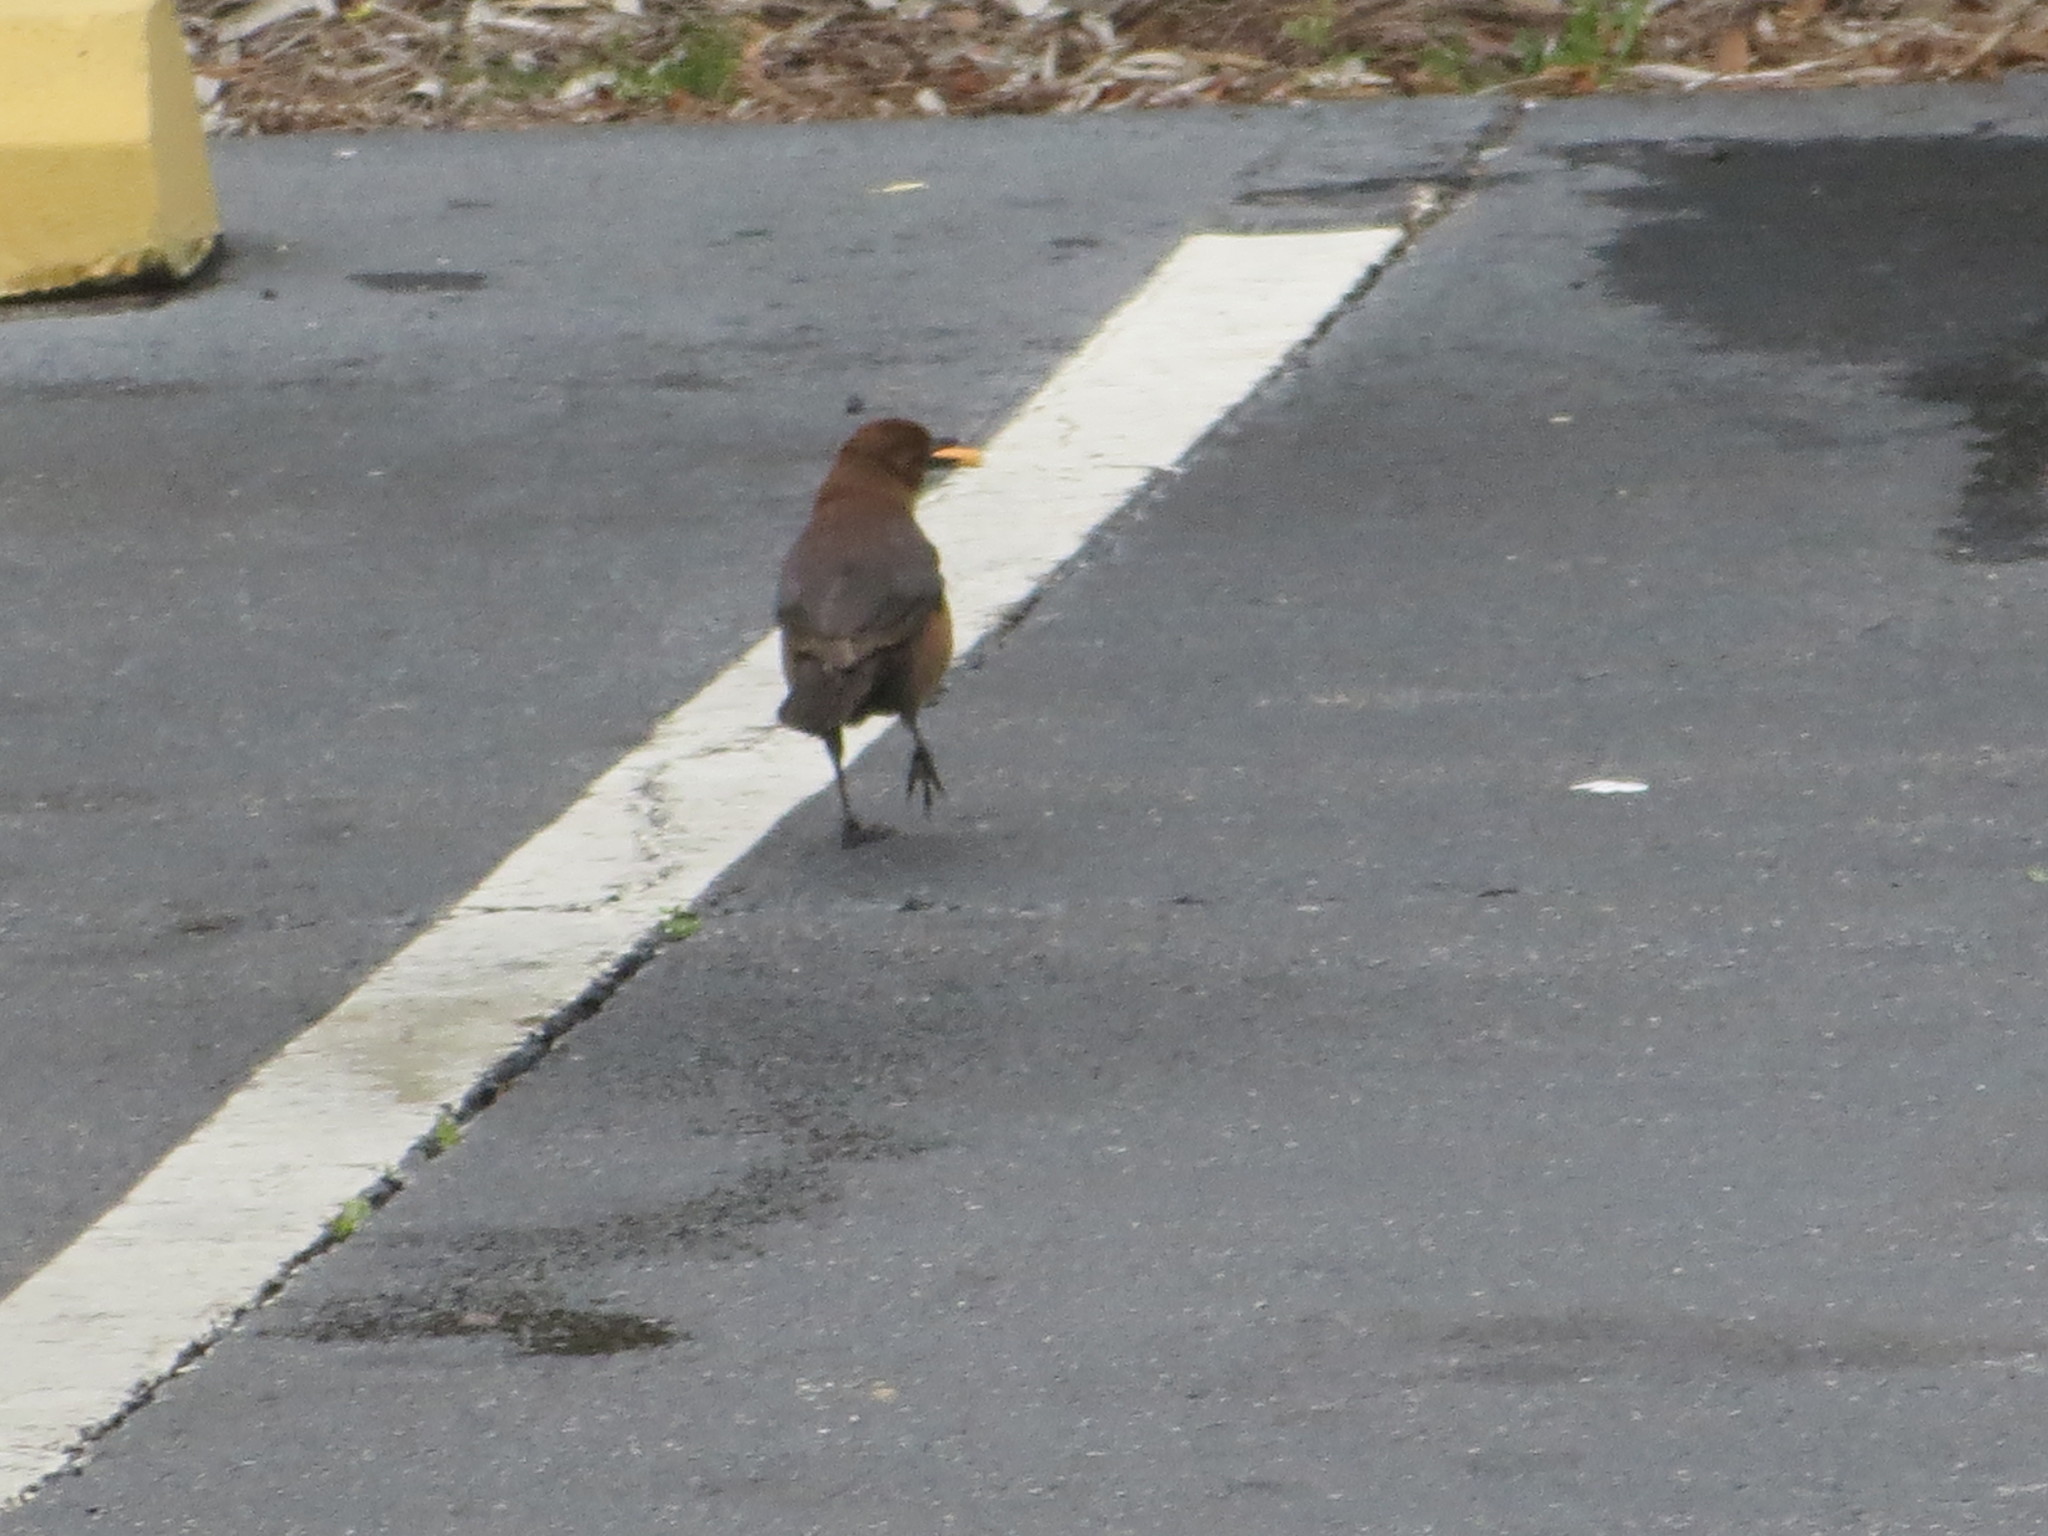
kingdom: Animalia
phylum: Chordata
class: Aves
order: Passeriformes
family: Icteridae
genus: Quiscalus
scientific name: Quiscalus major
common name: Boat-tailed grackle
